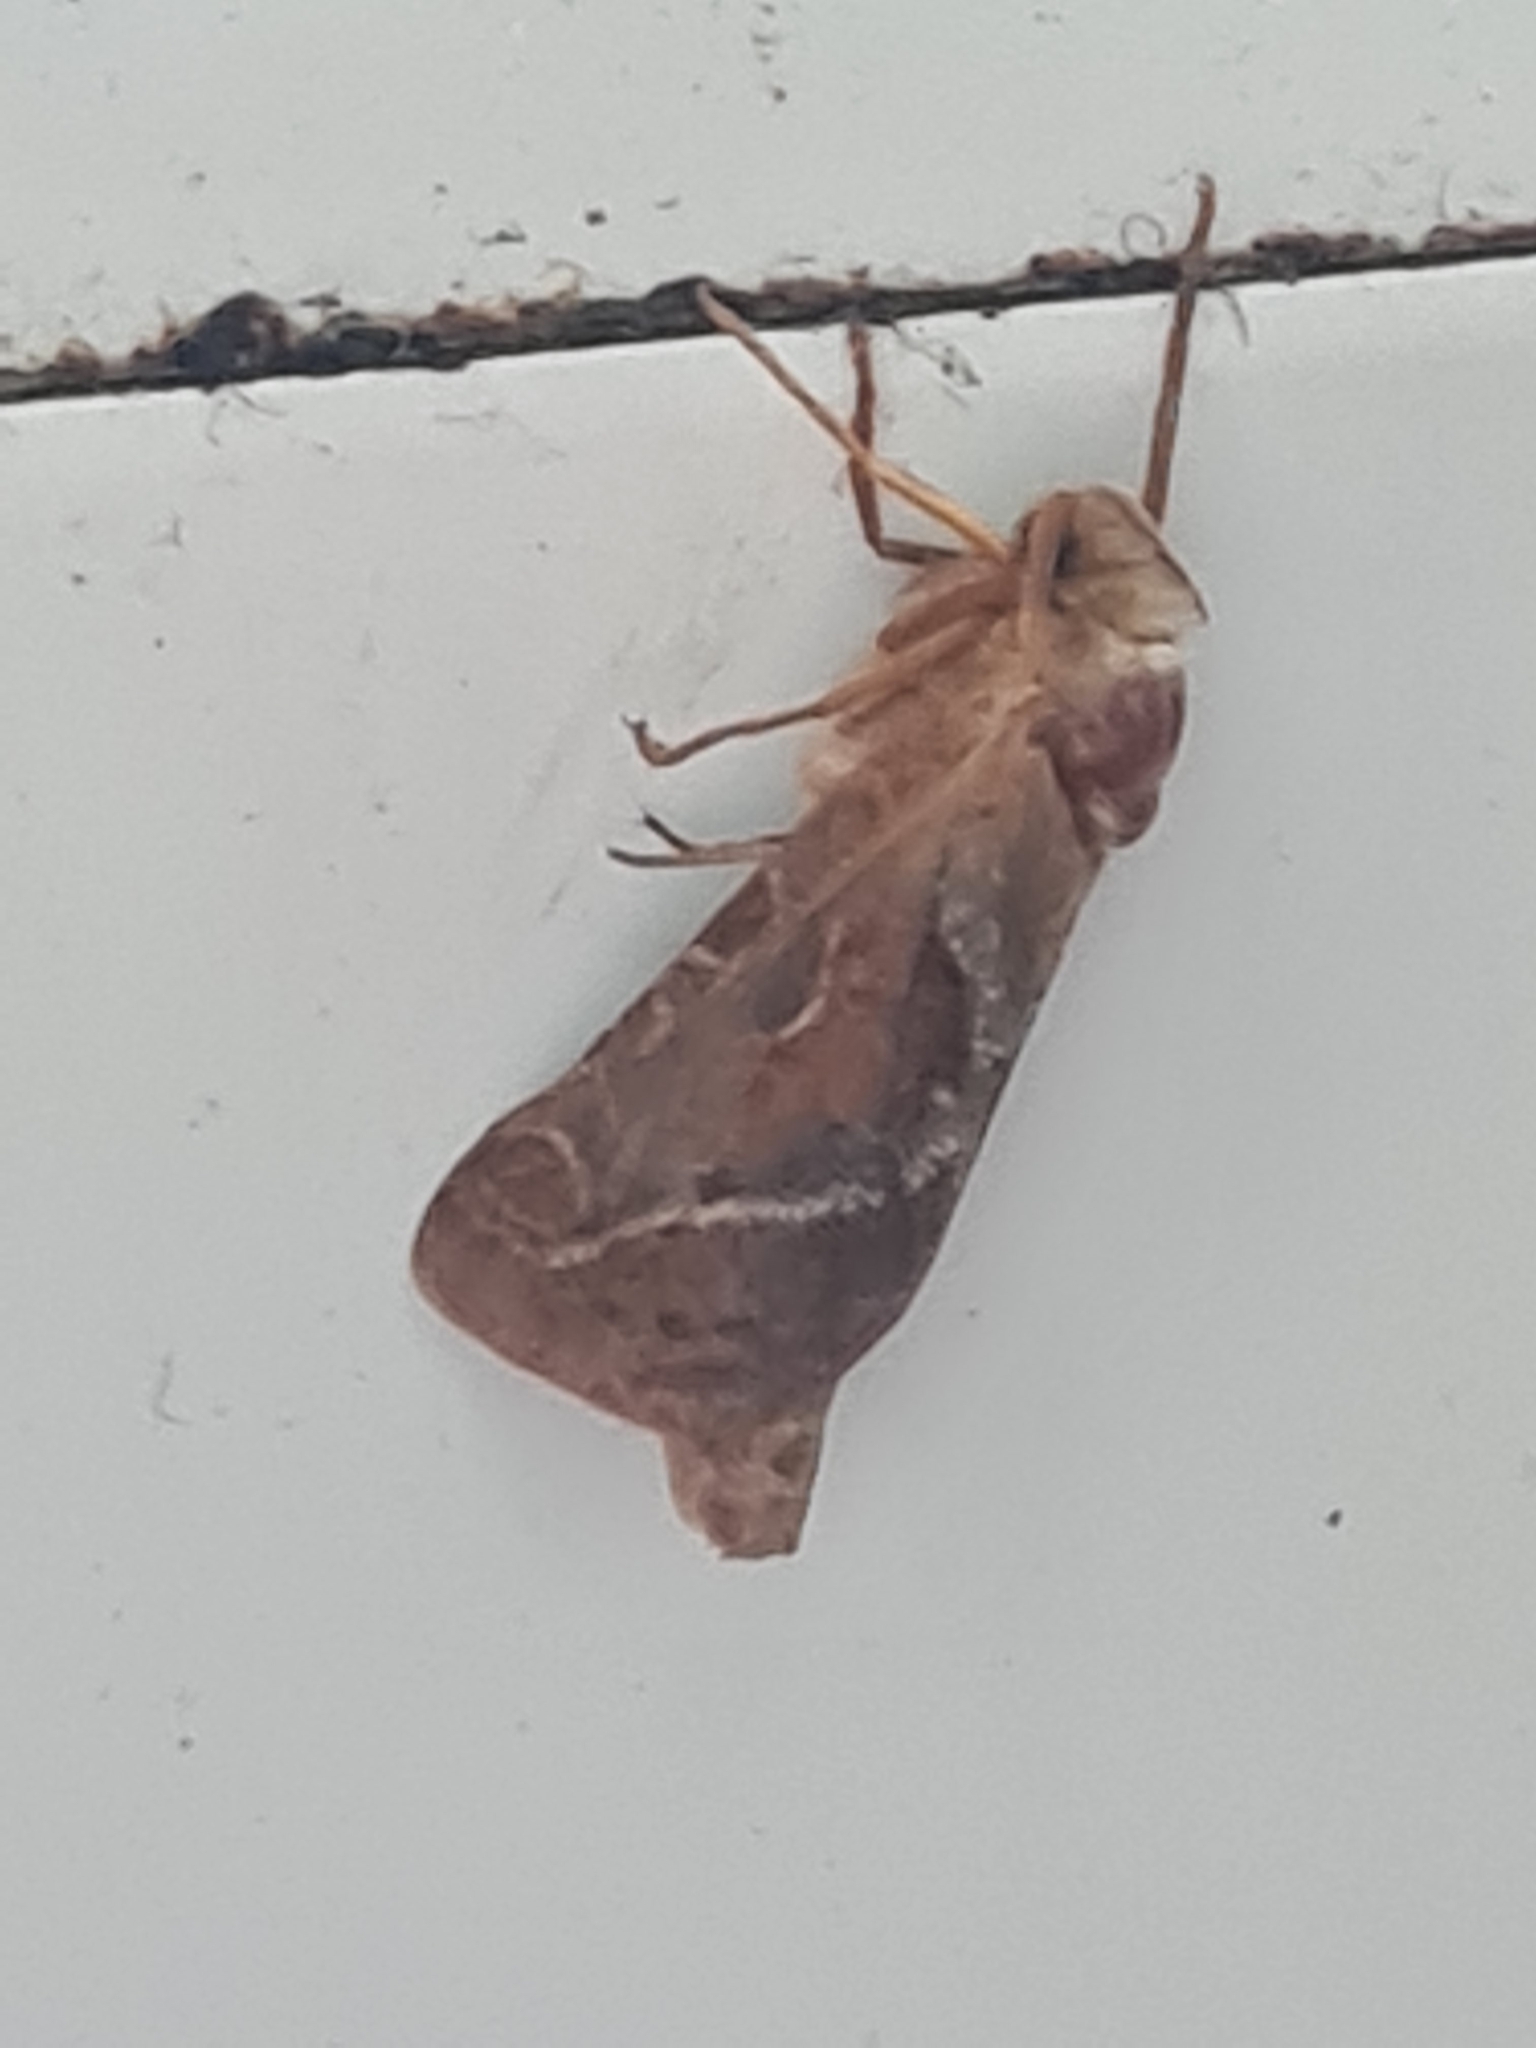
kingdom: Animalia
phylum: Arthropoda
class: Insecta
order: Lepidoptera
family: Hepialidae
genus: Triodia
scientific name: Triodia sylvina
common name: Orange swift
